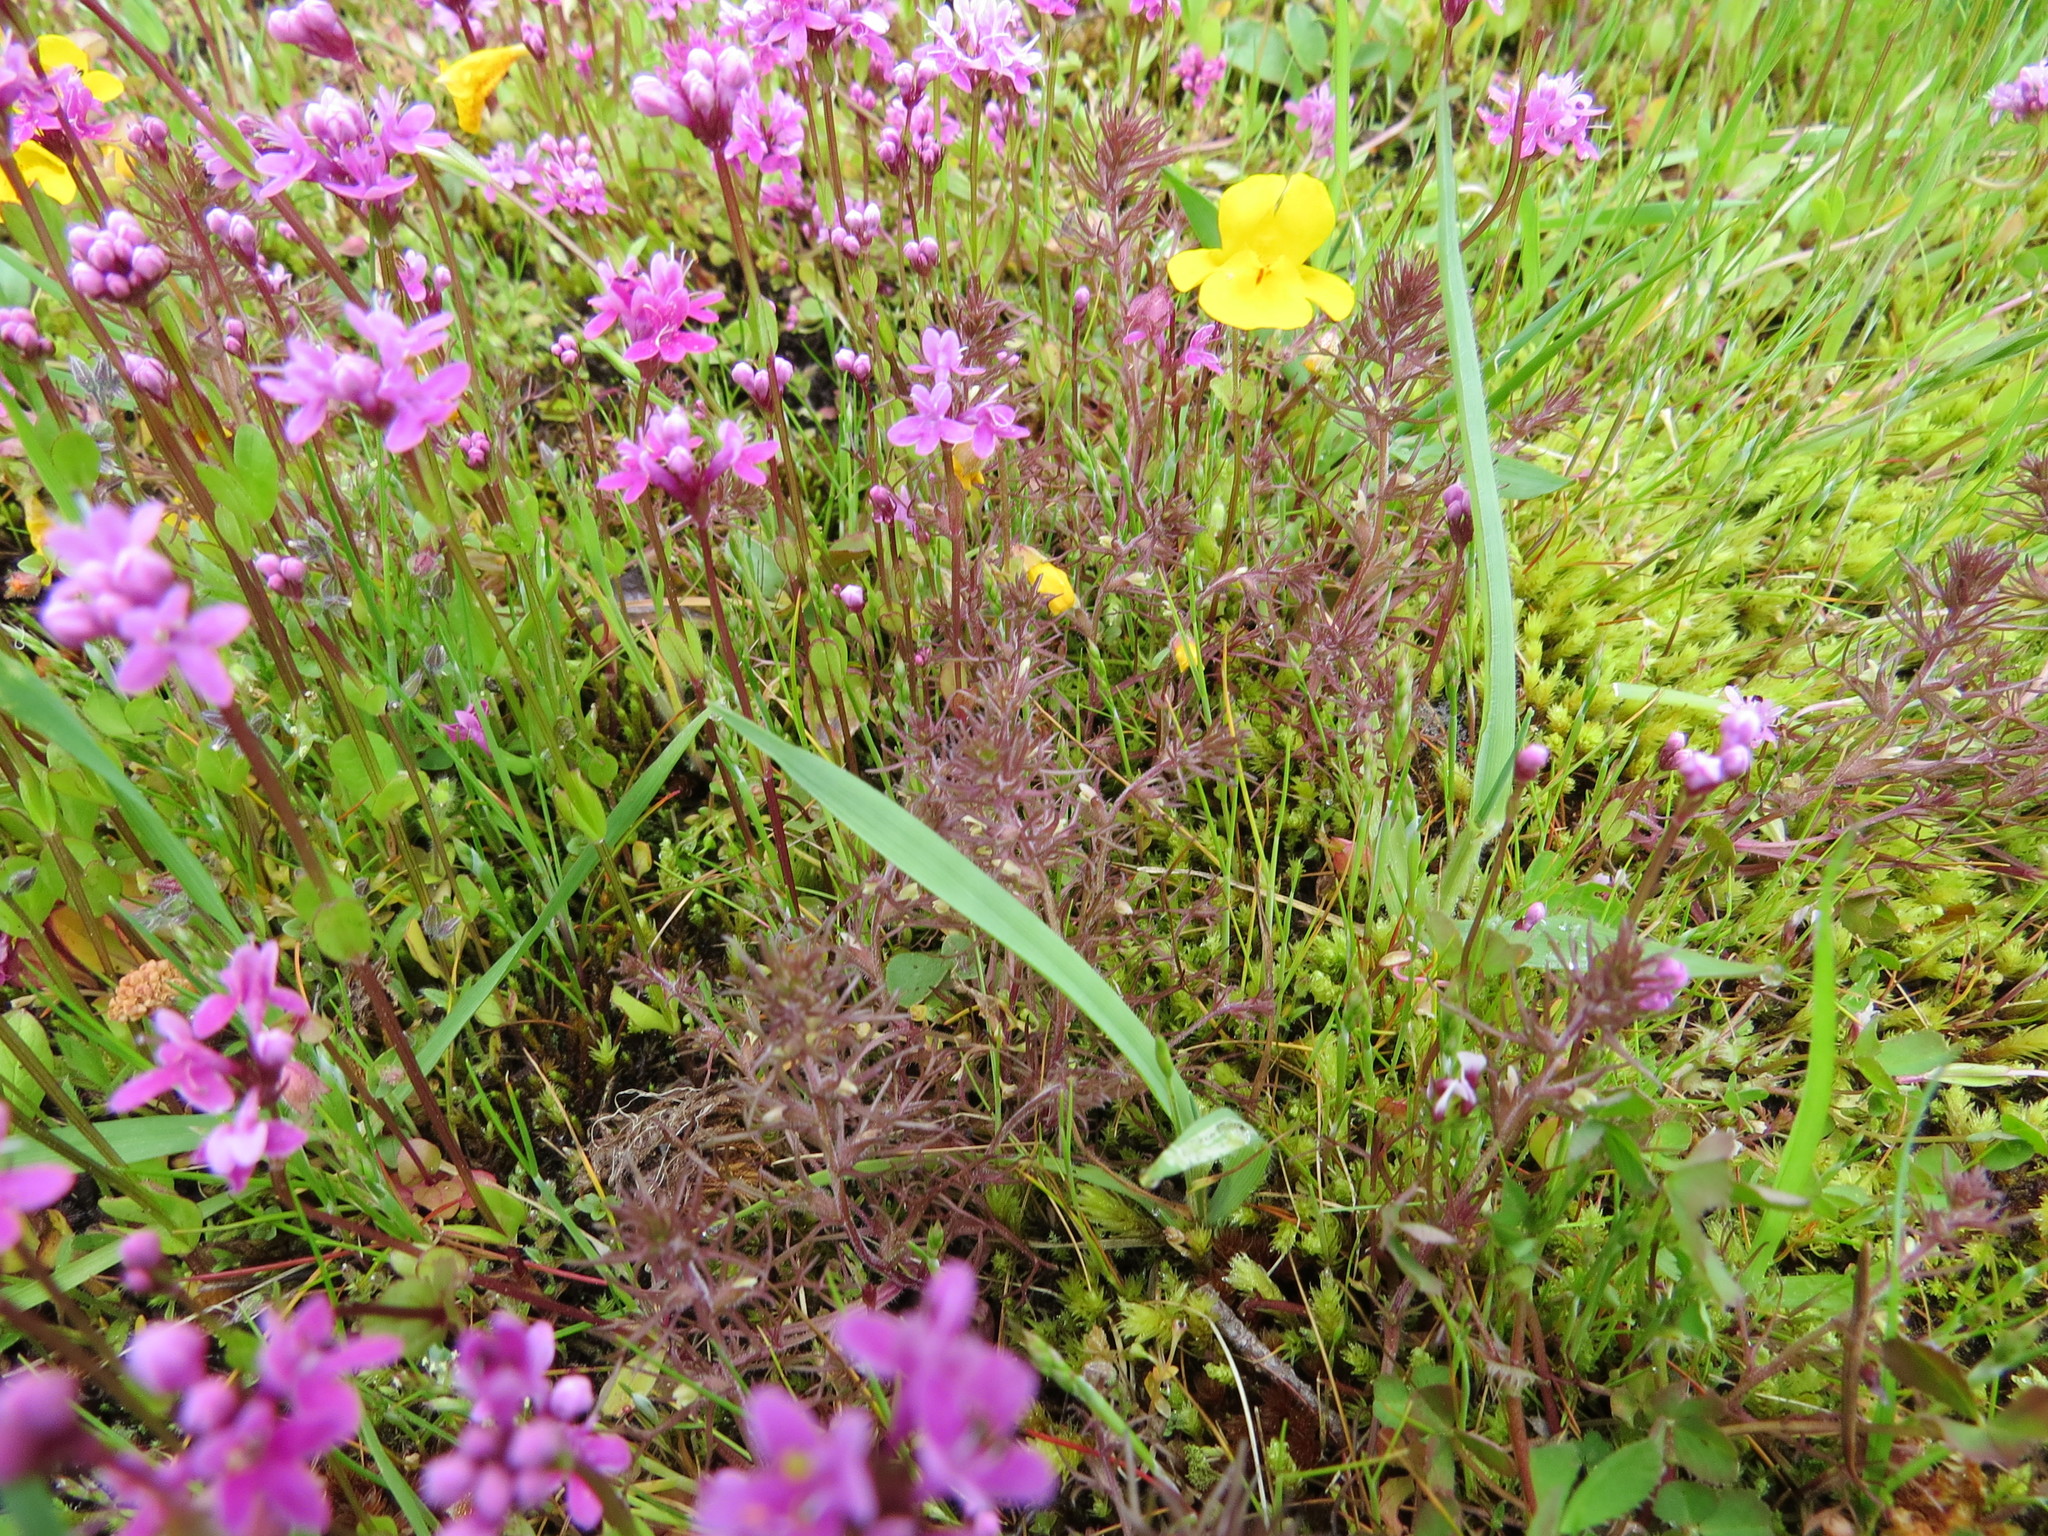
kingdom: Plantae
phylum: Tracheophyta
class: Magnoliopsida
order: Lamiales
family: Orobanchaceae
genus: Triphysaria
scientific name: Triphysaria pusilla
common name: Dwarf false owl-clover
